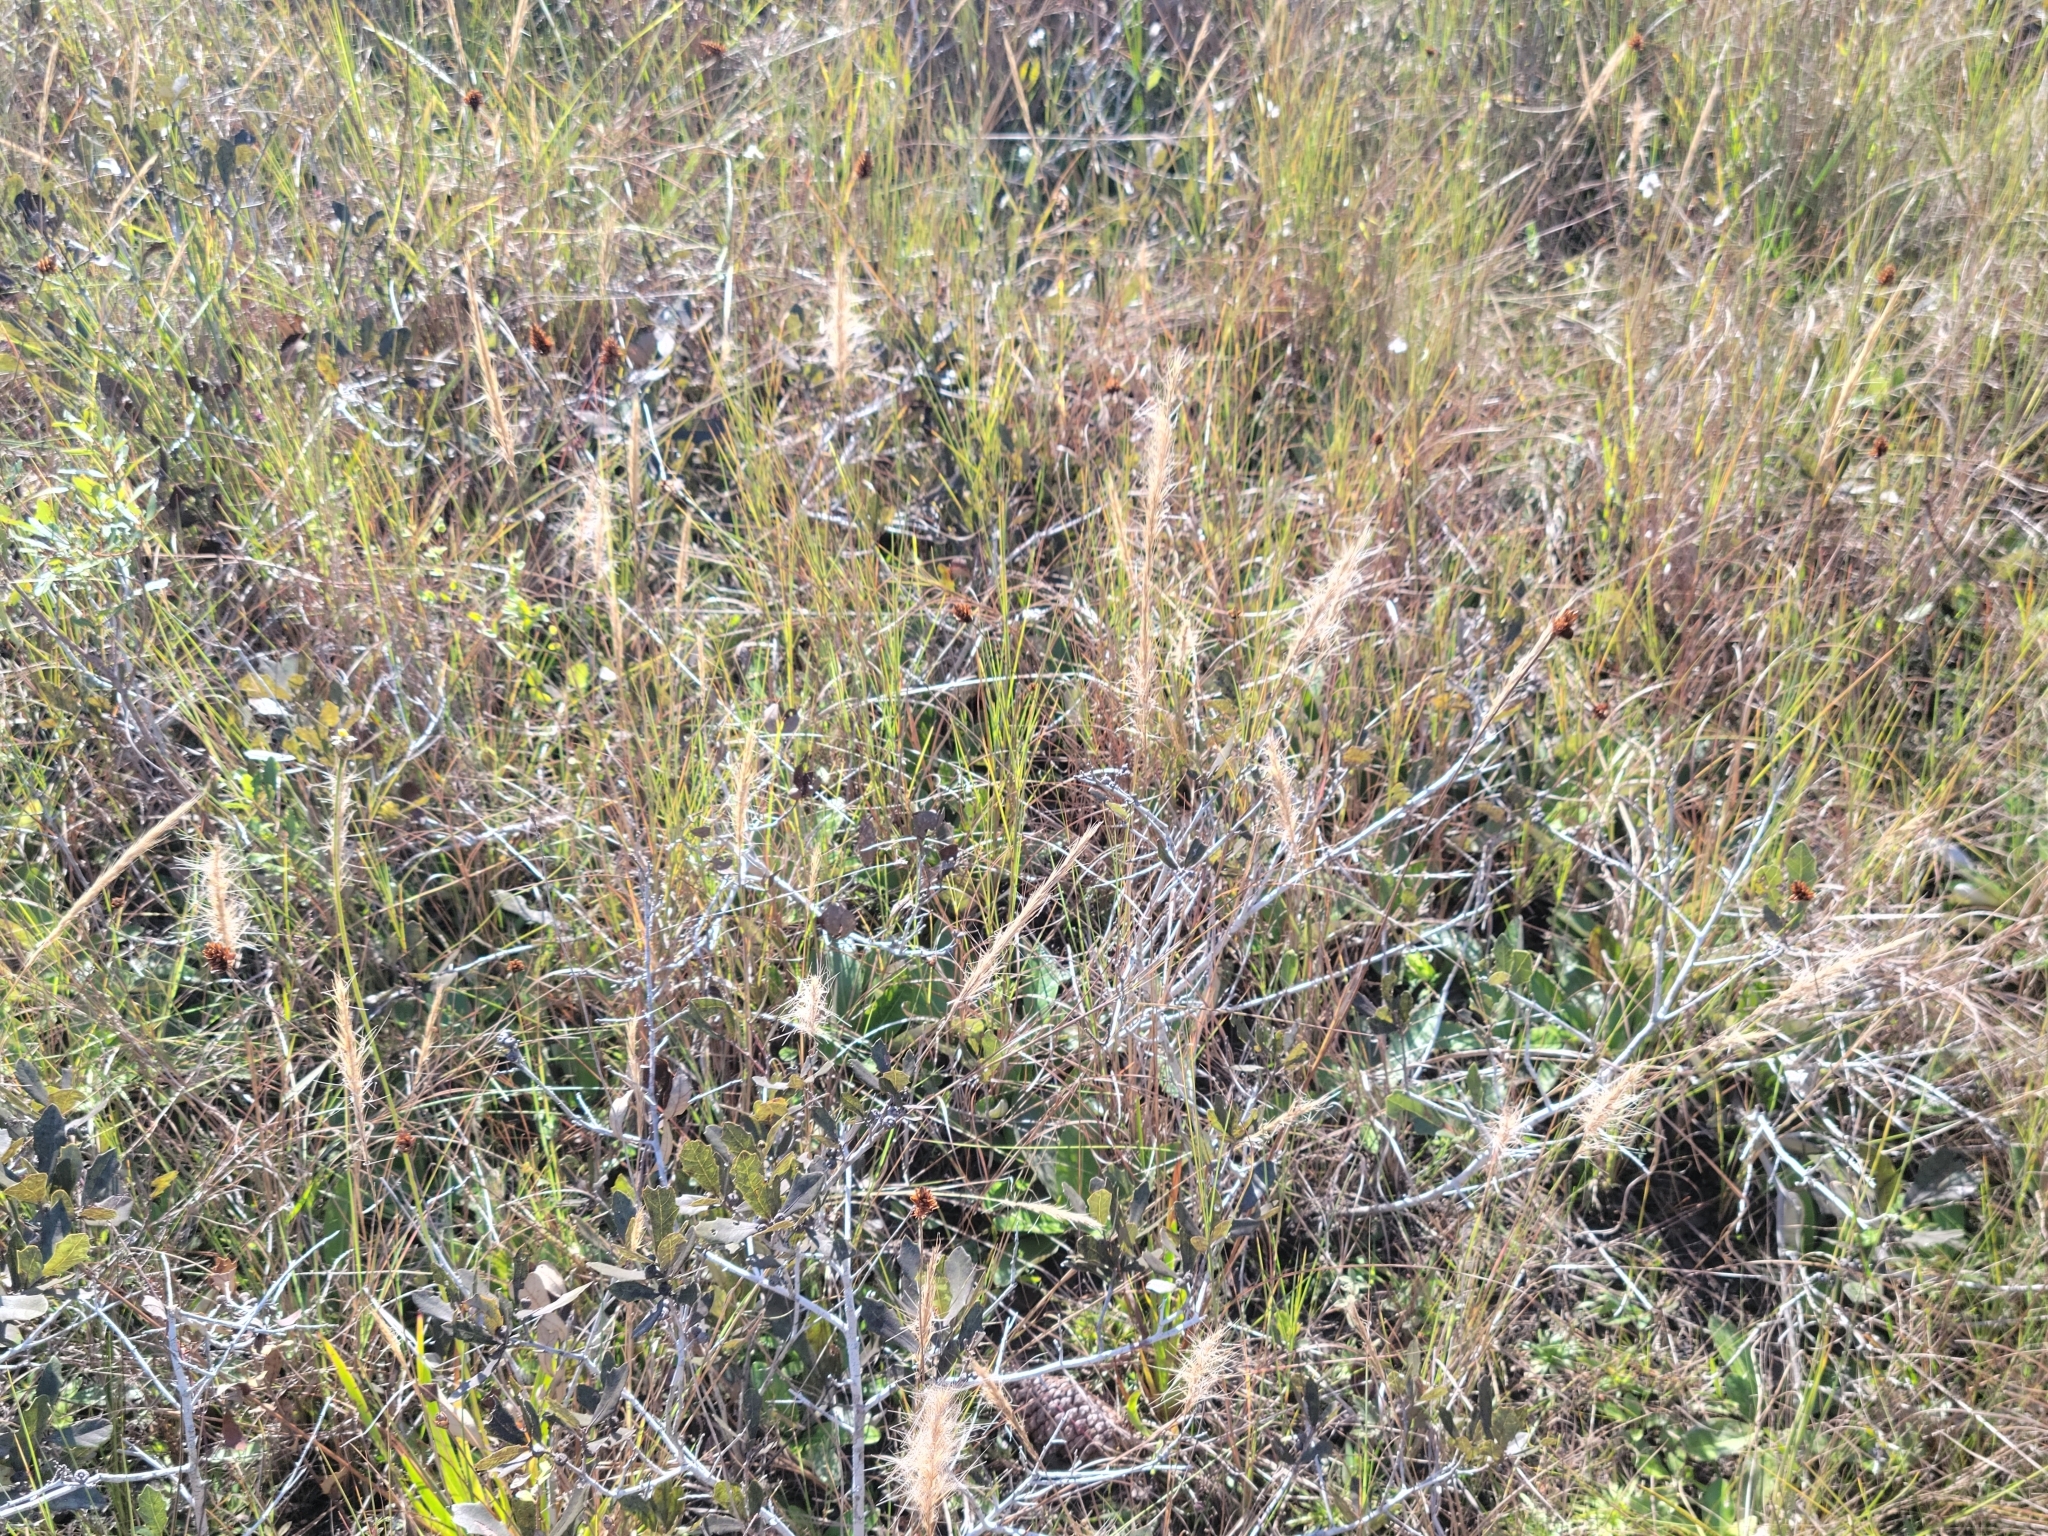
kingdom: Plantae
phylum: Tracheophyta
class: Liliopsida
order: Poales
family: Poaceae
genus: Aristida
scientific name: Aristida spiciformis
